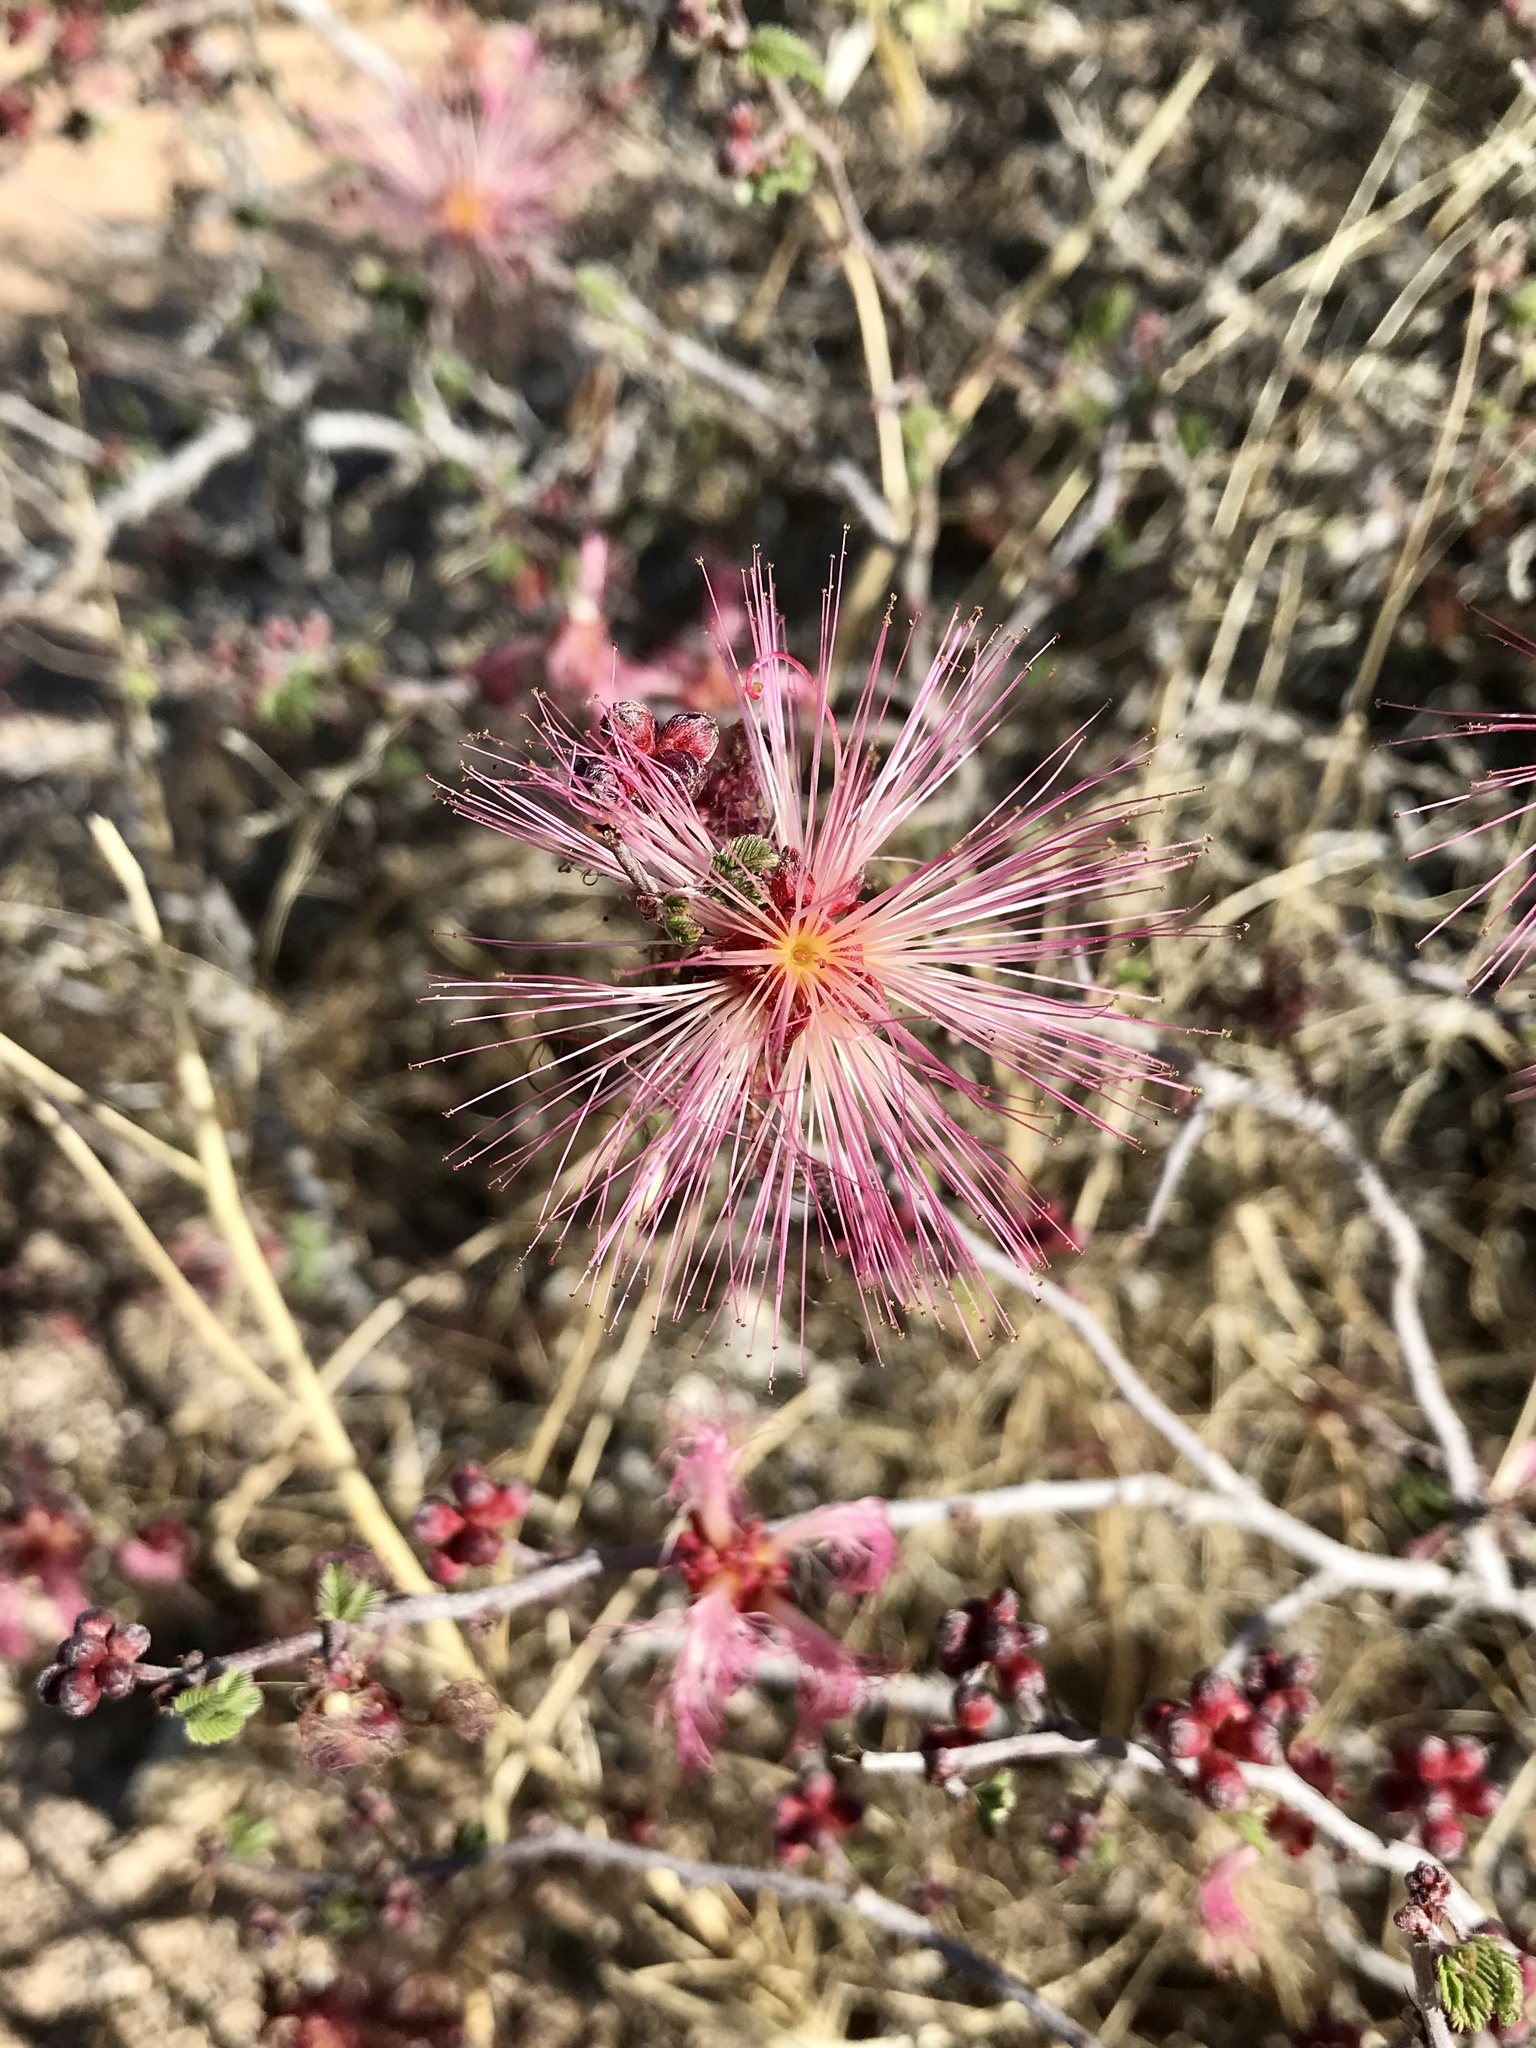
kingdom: Plantae
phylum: Tracheophyta
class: Magnoliopsida
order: Fabales
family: Fabaceae
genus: Calliandra
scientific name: Calliandra eriophylla
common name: Fairy-duster
